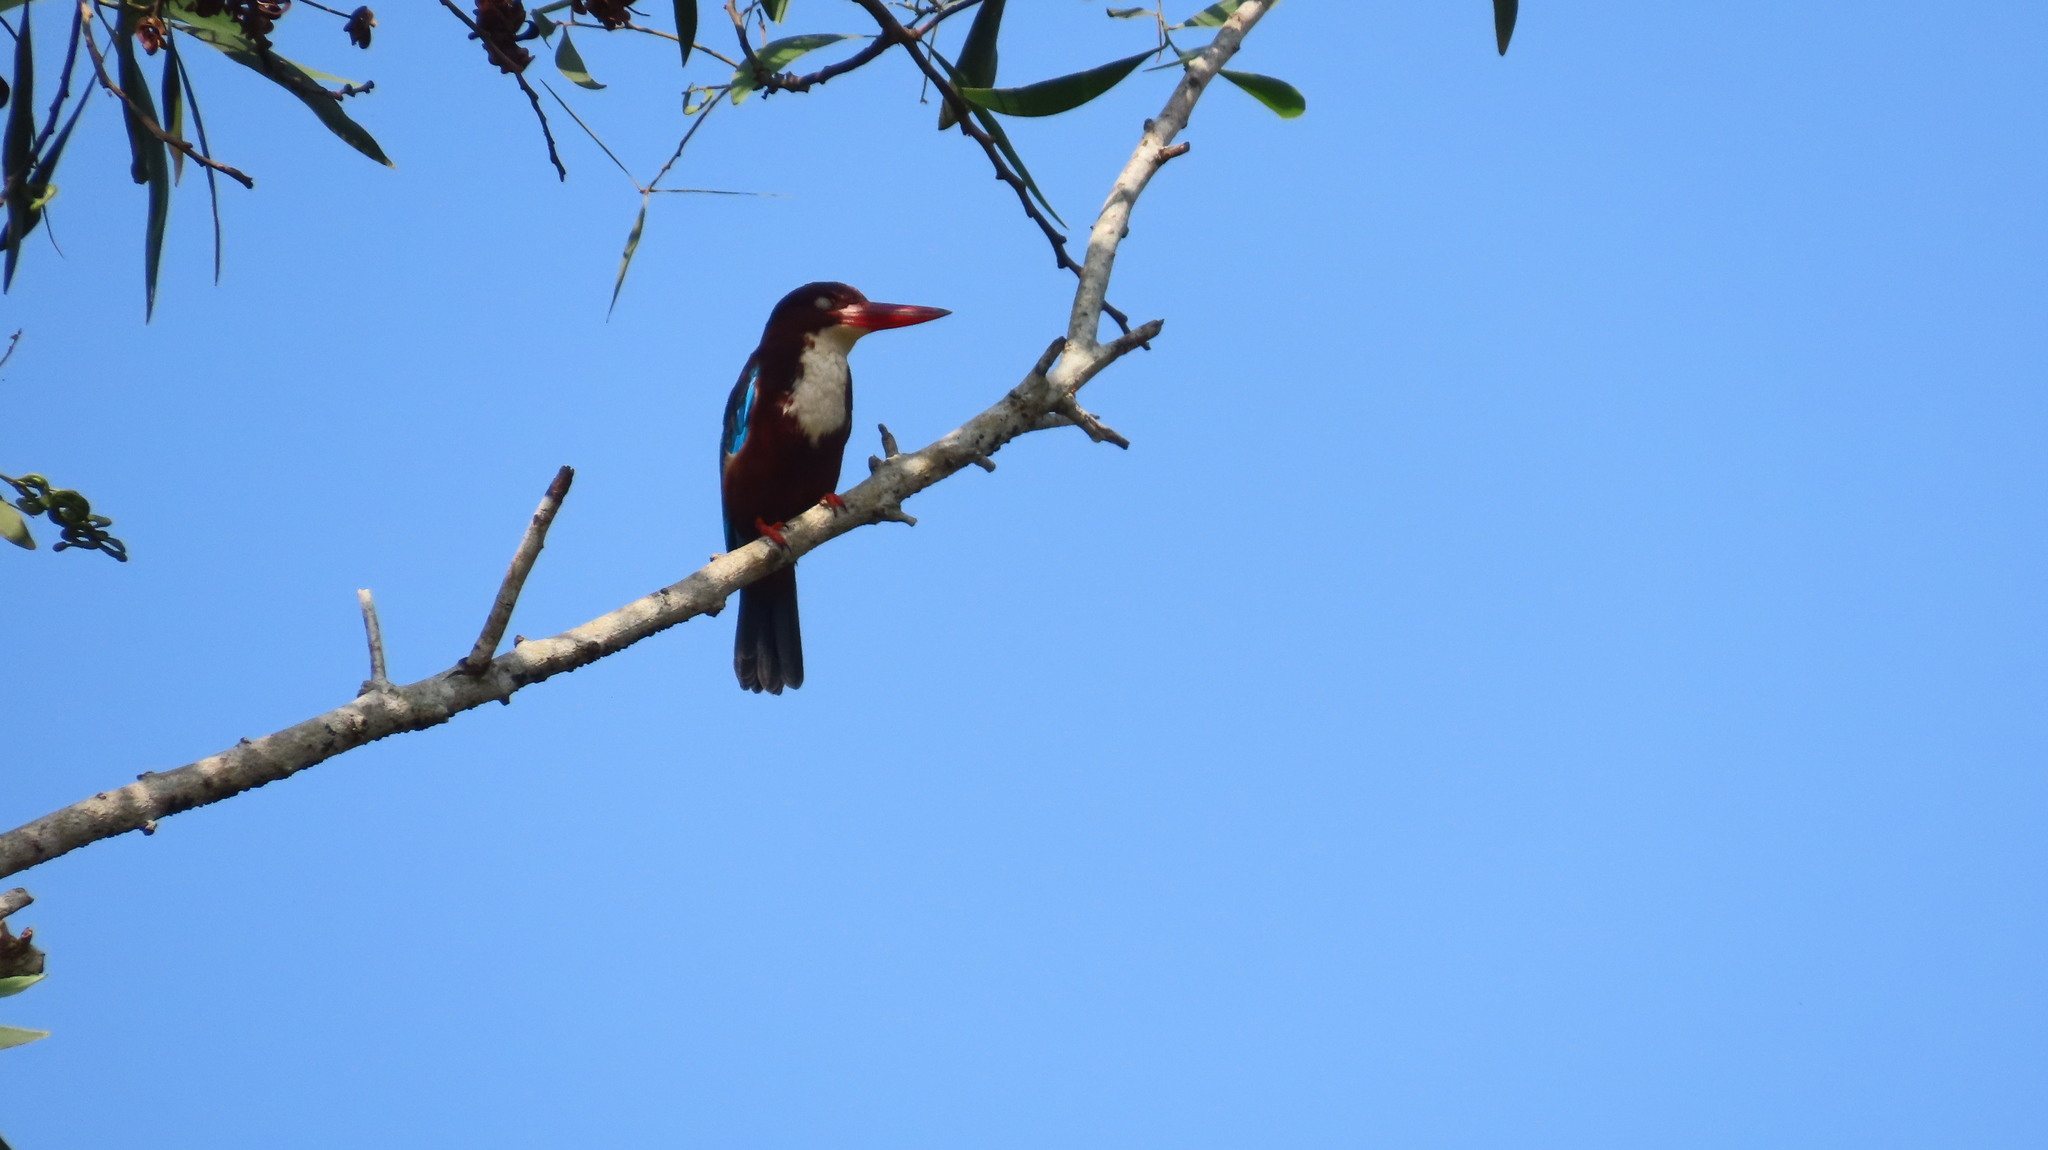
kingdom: Animalia
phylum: Chordata
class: Aves
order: Coraciiformes
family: Alcedinidae
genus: Halcyon
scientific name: Halcyon smyrnensis
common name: White-throated kingfisher
